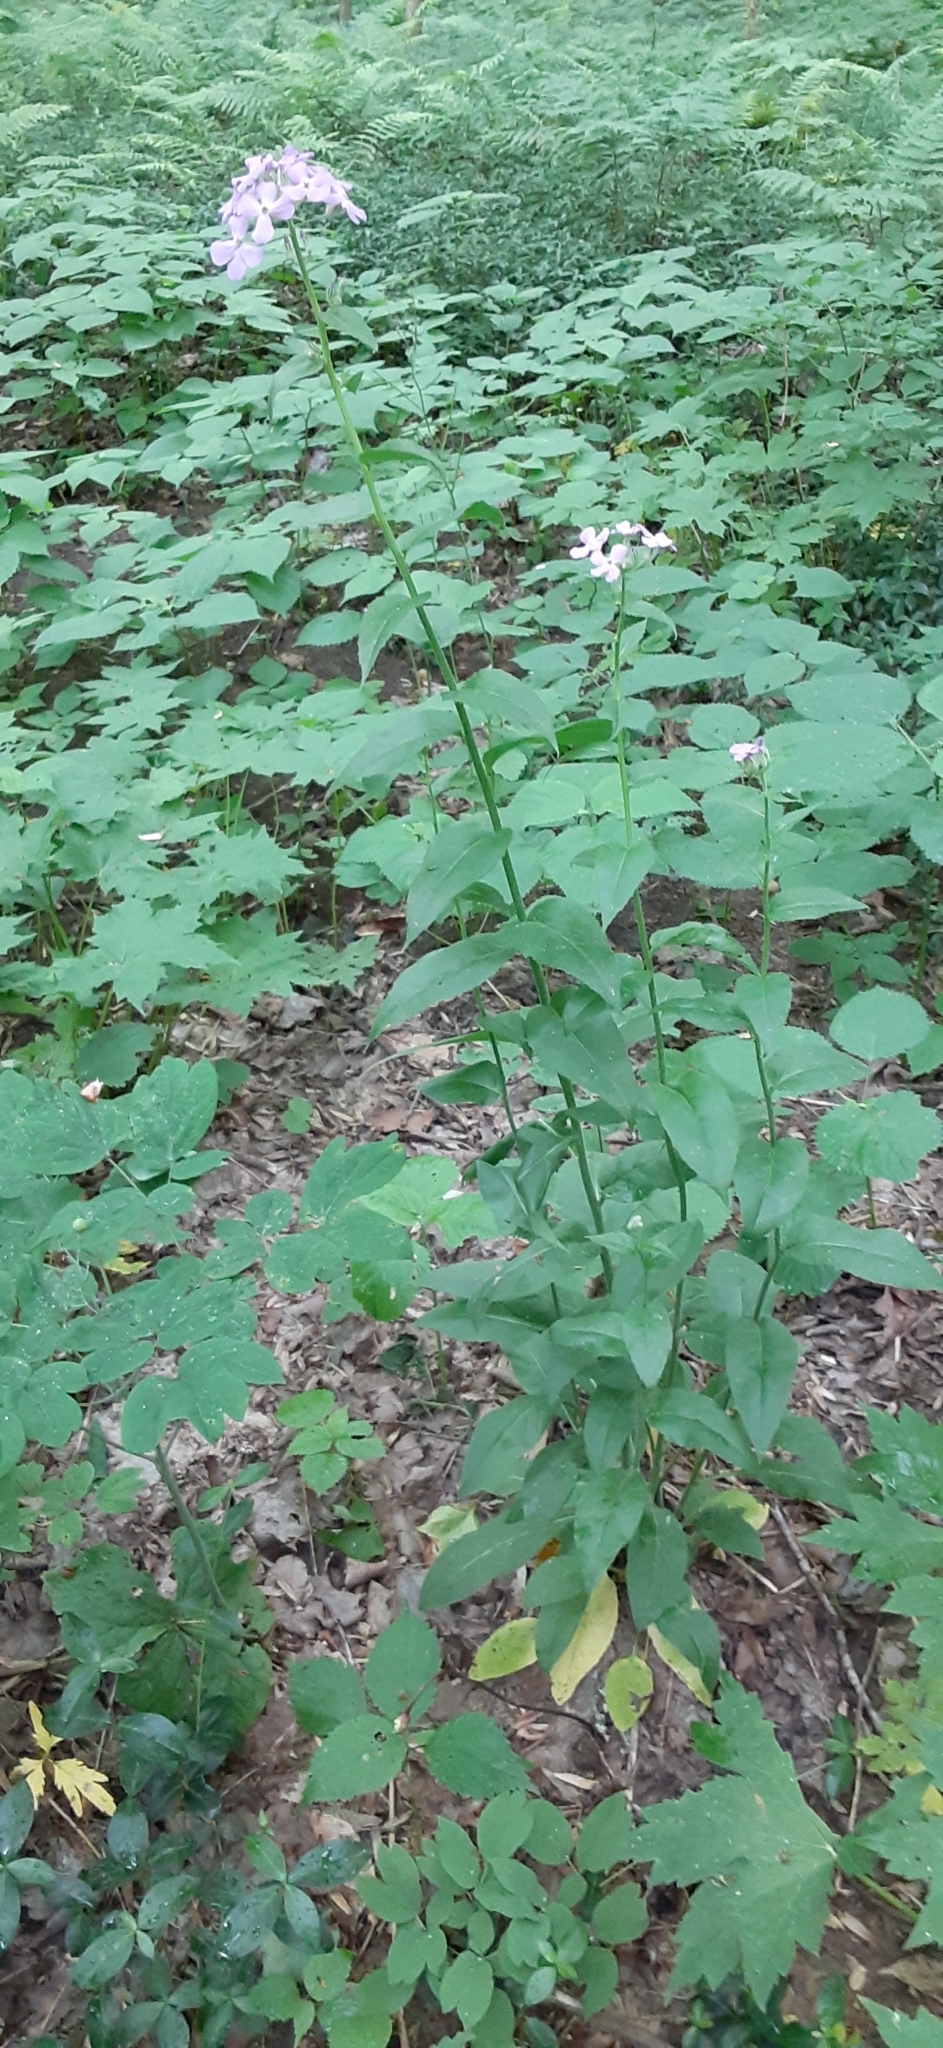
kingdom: Plantae
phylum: Tracheophyta
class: Magnoliopsida
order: Brassicales
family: Brassicaceae
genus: Hesperis
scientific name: Hesperis matronalis
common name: Dame's-violet
